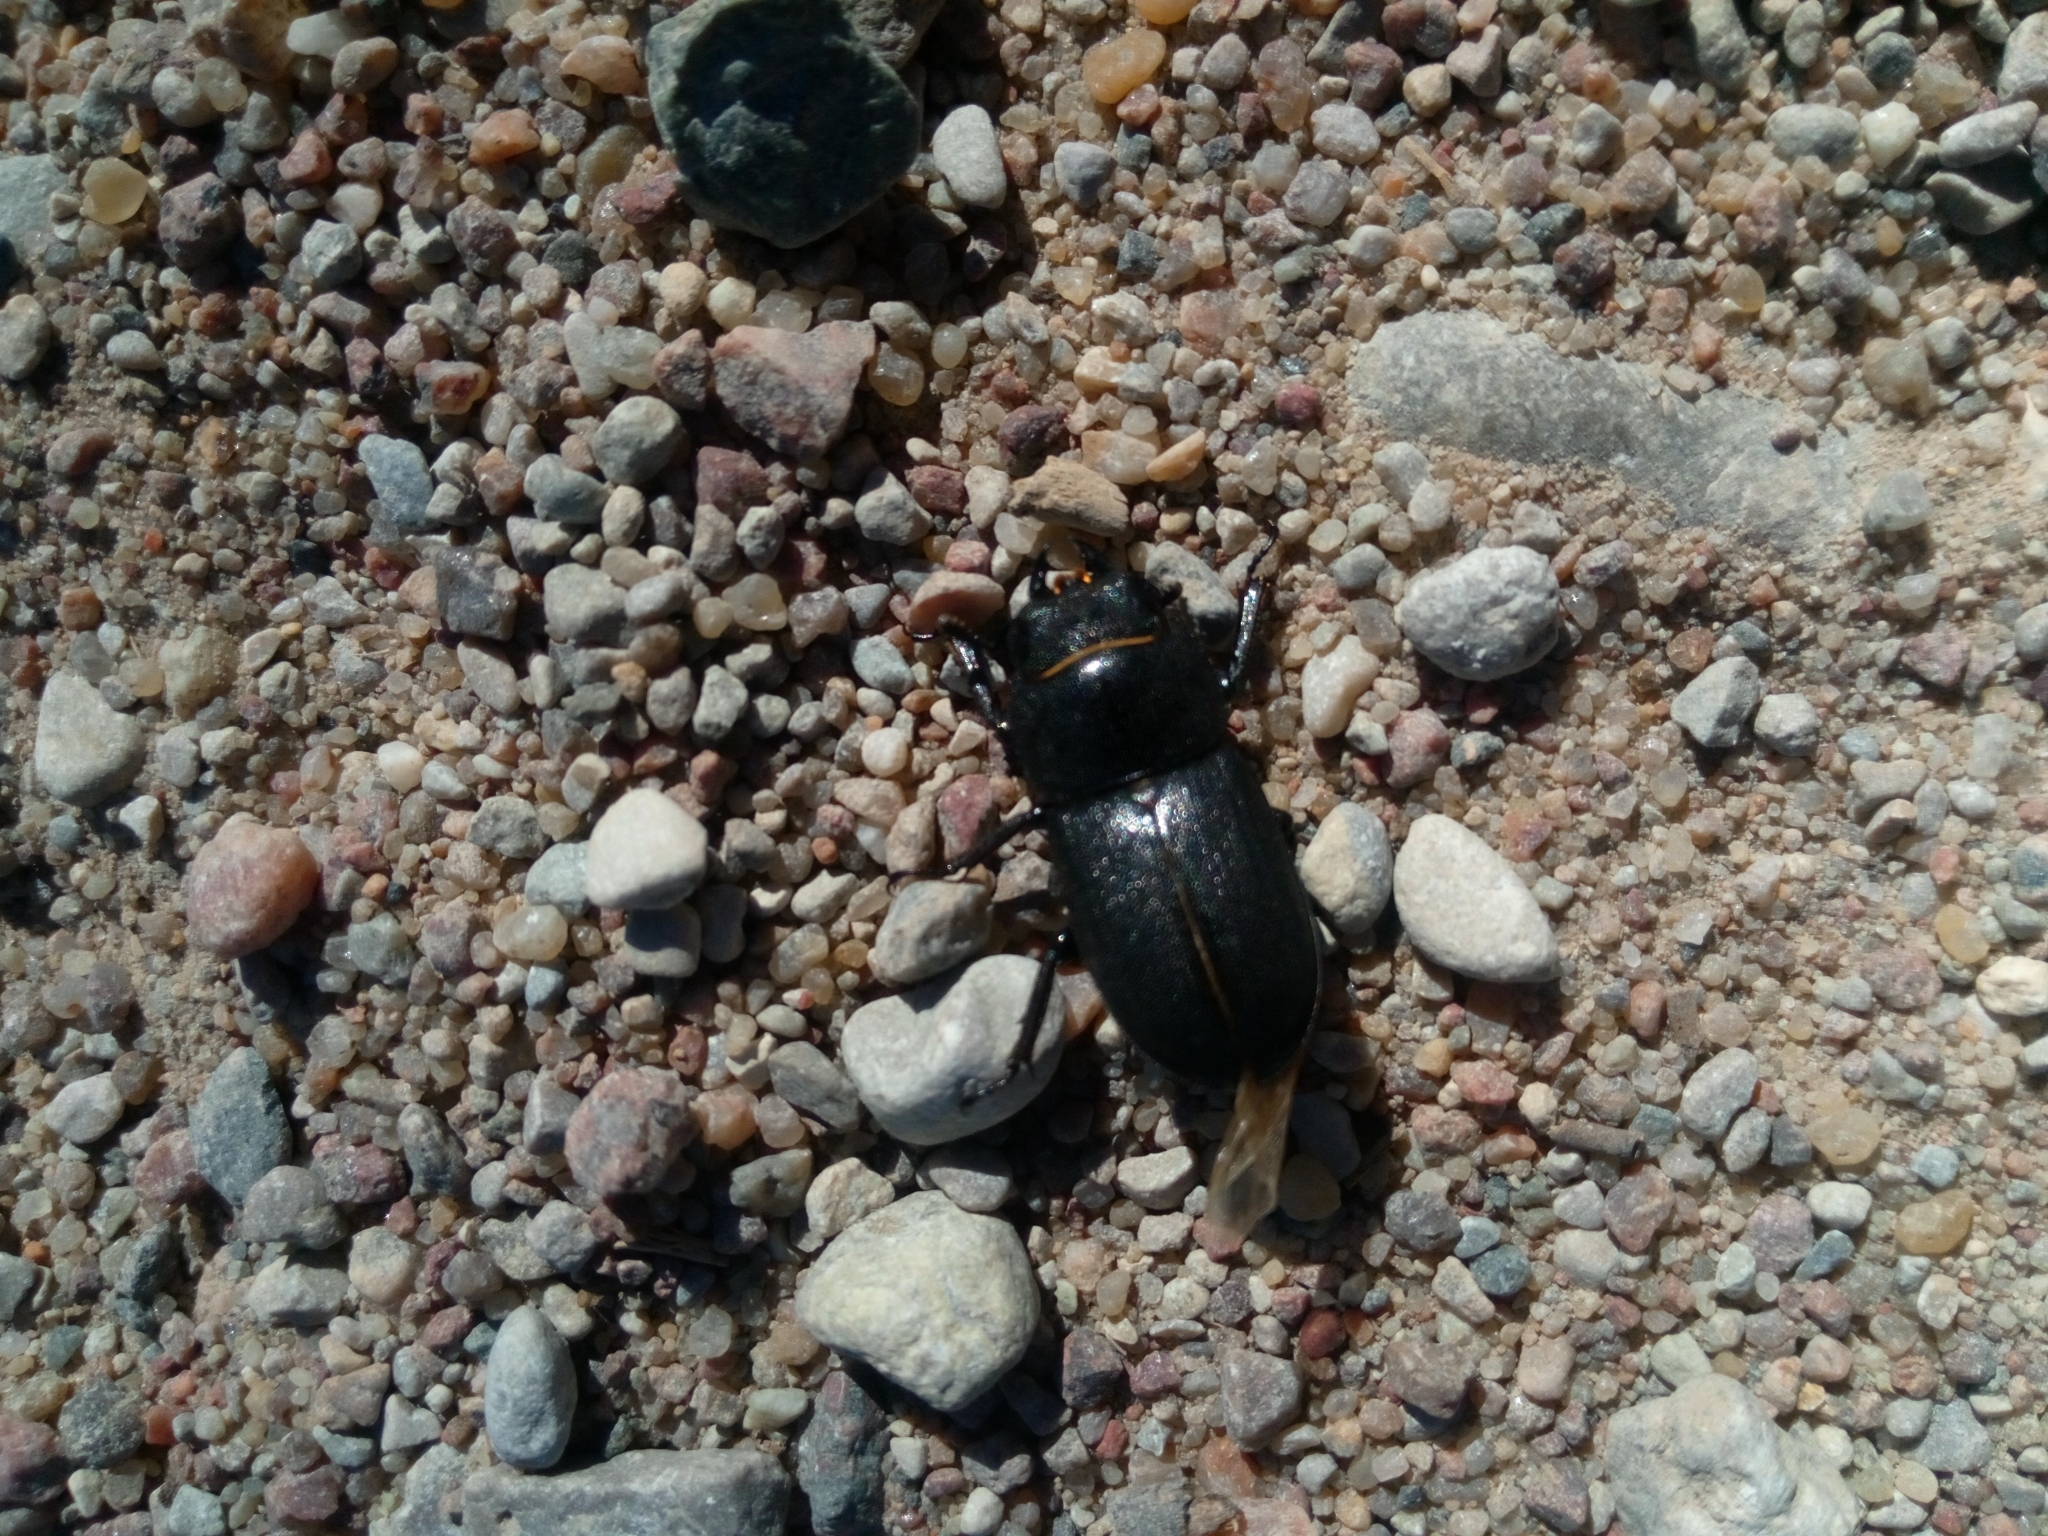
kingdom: Animalia
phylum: Arthropoda
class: Insecta
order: Coleoptera
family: Lucanidae
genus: Dorcus
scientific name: Dorcus parallelipipedus
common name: Lesser stag beetle
